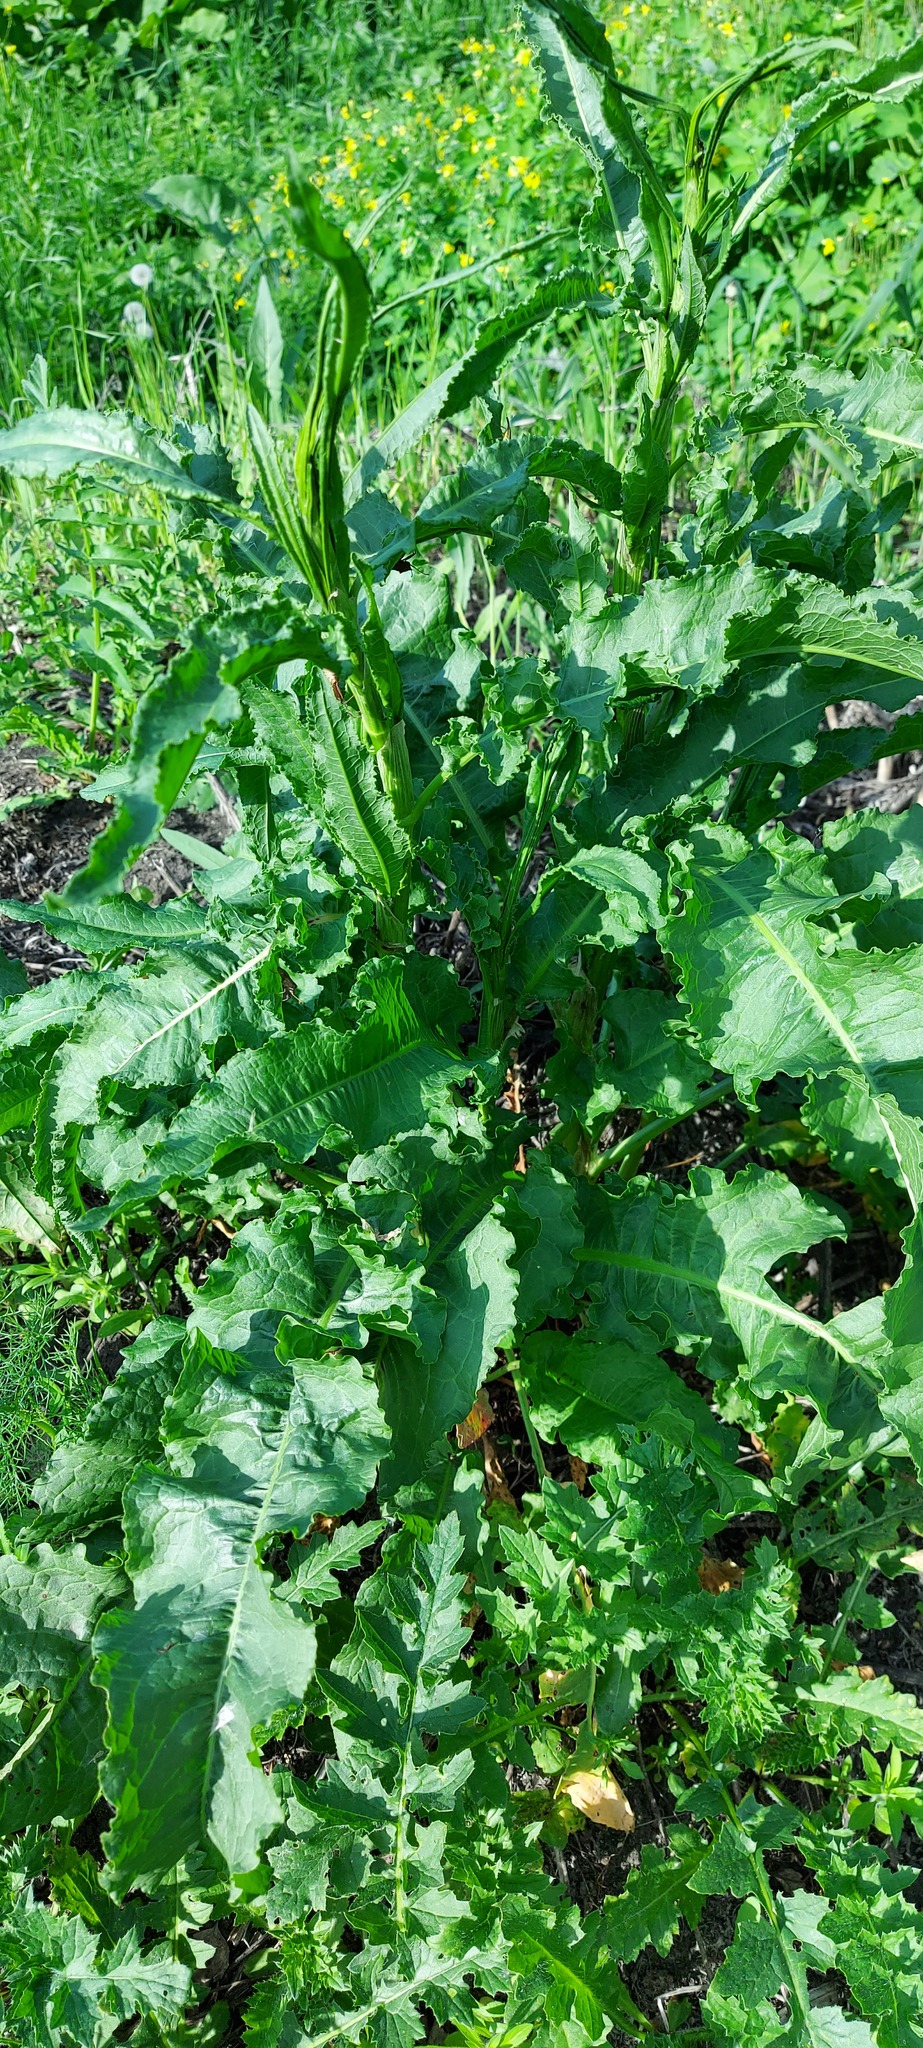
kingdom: Plantae
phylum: Tracheophyta
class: Magnoliopsida
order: Caryophyllales
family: Polygonaceae
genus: Rumex
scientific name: Rumex crispus
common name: Curled dock
